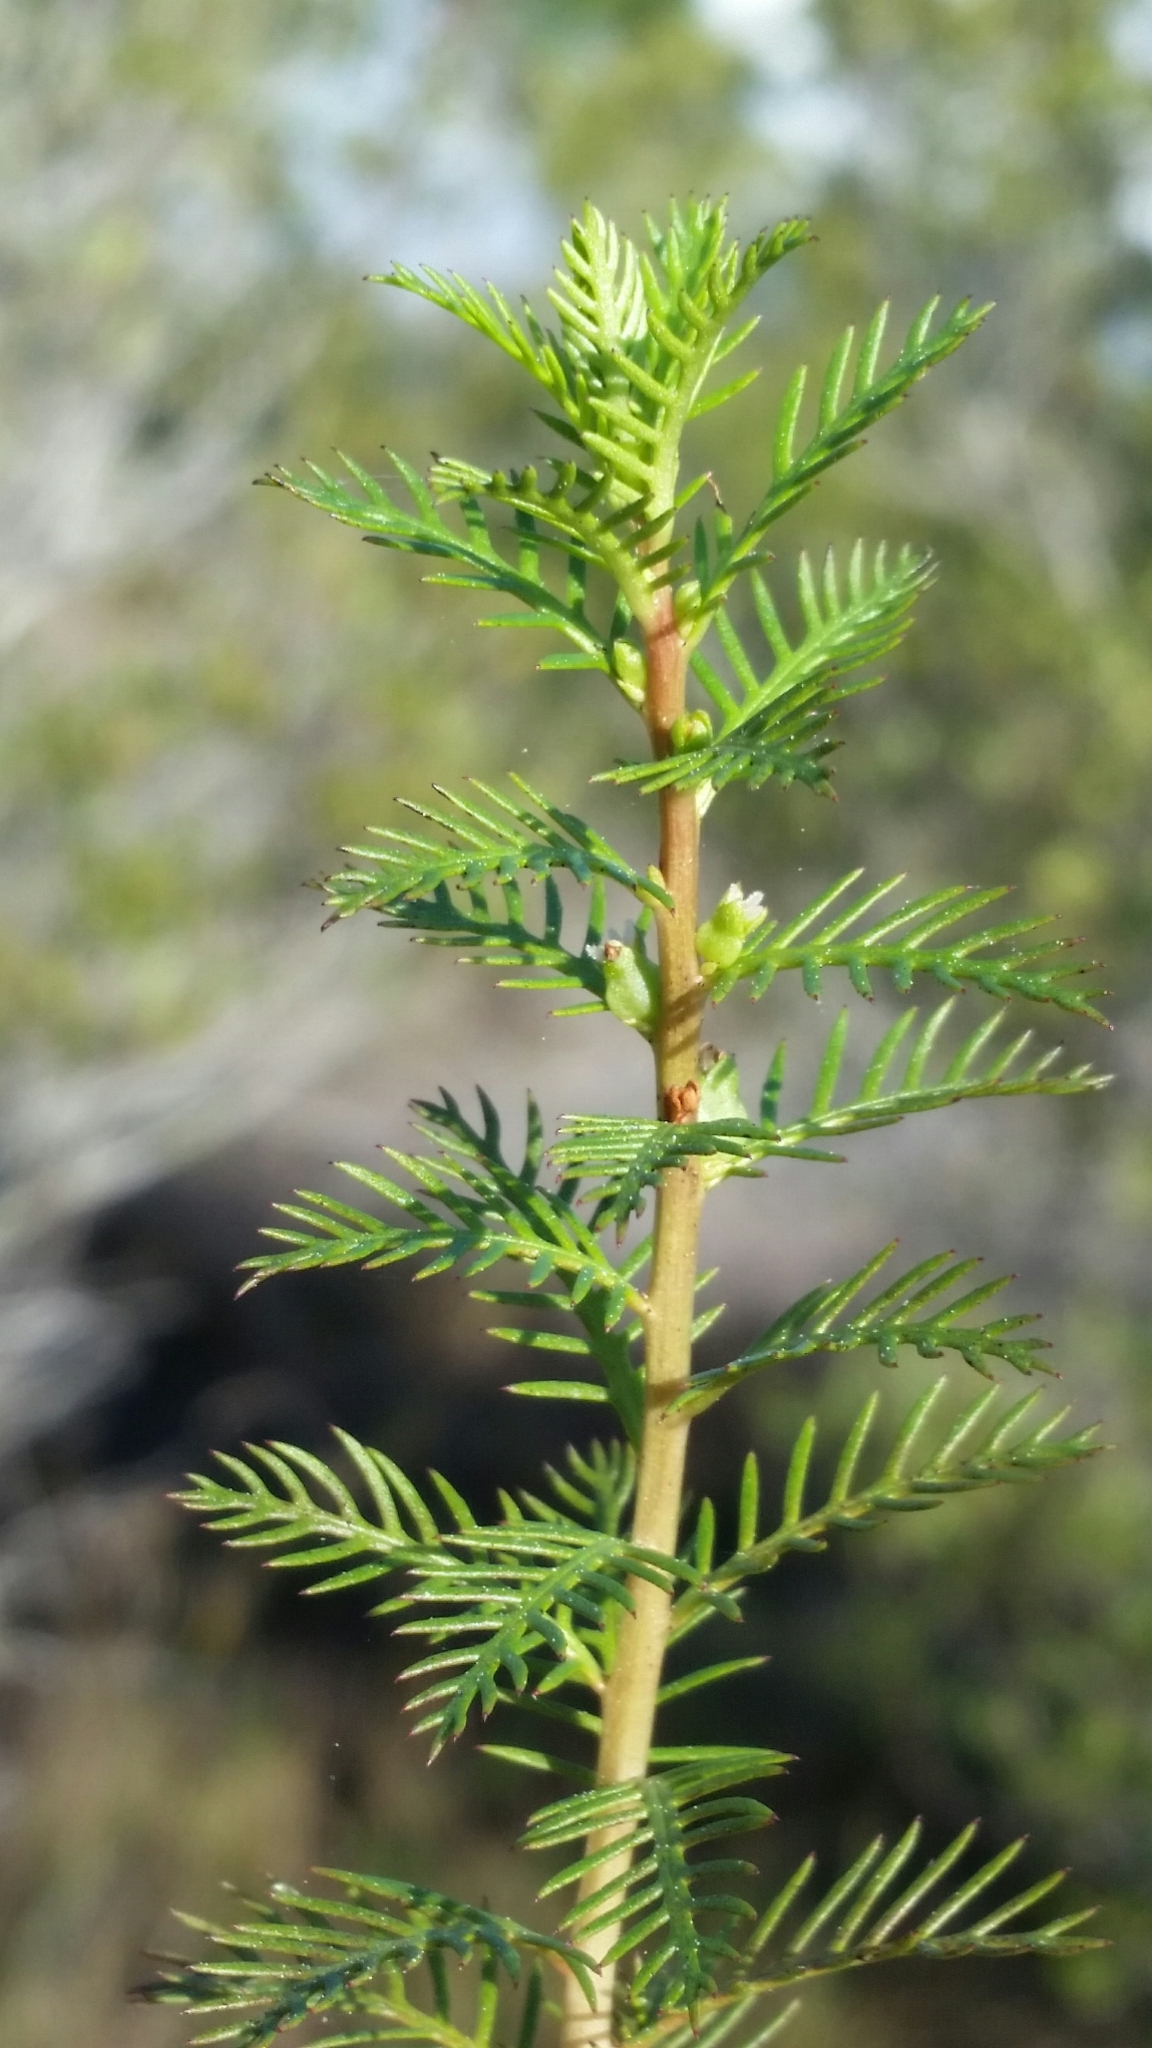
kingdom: Plantae
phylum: Tracheophyta
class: Magnoliopsida
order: Saxifragales
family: Haloragaceae
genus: Proserpinaca
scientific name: Proserpinaca pectinata
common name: Comb-leaved mermaidweed
